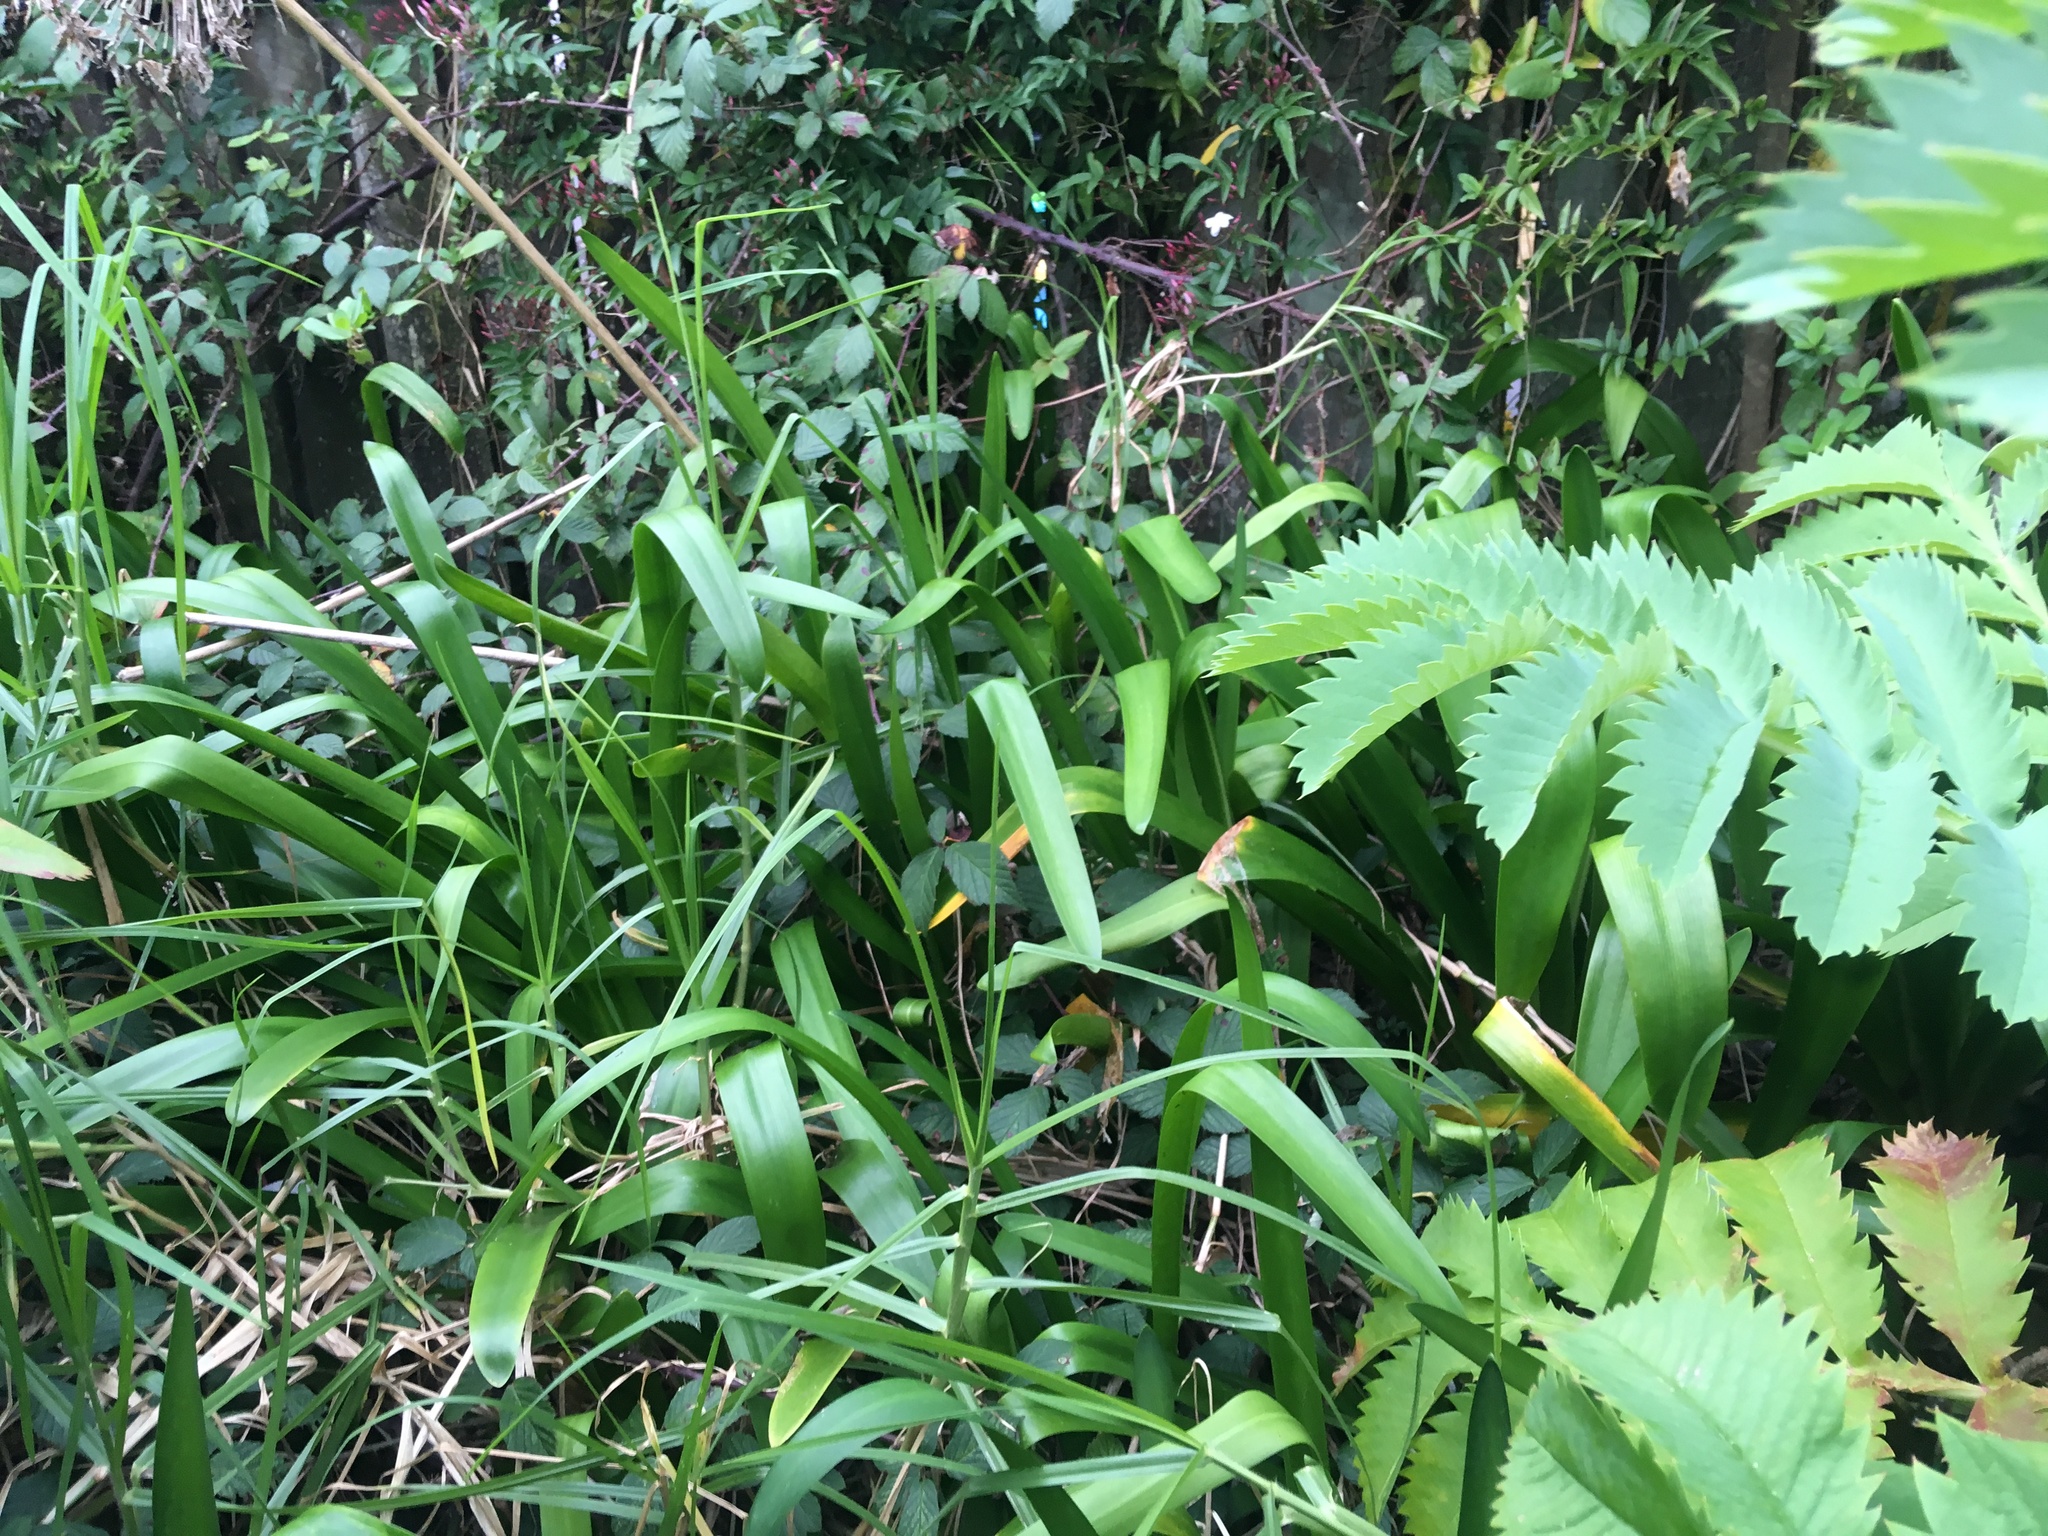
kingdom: Plantae
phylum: Tracheophyta
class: Liliopsida
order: Asparagales
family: Amaryllidaceae
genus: Agapanthus
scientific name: Agapanthus praecox
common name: African-lily
